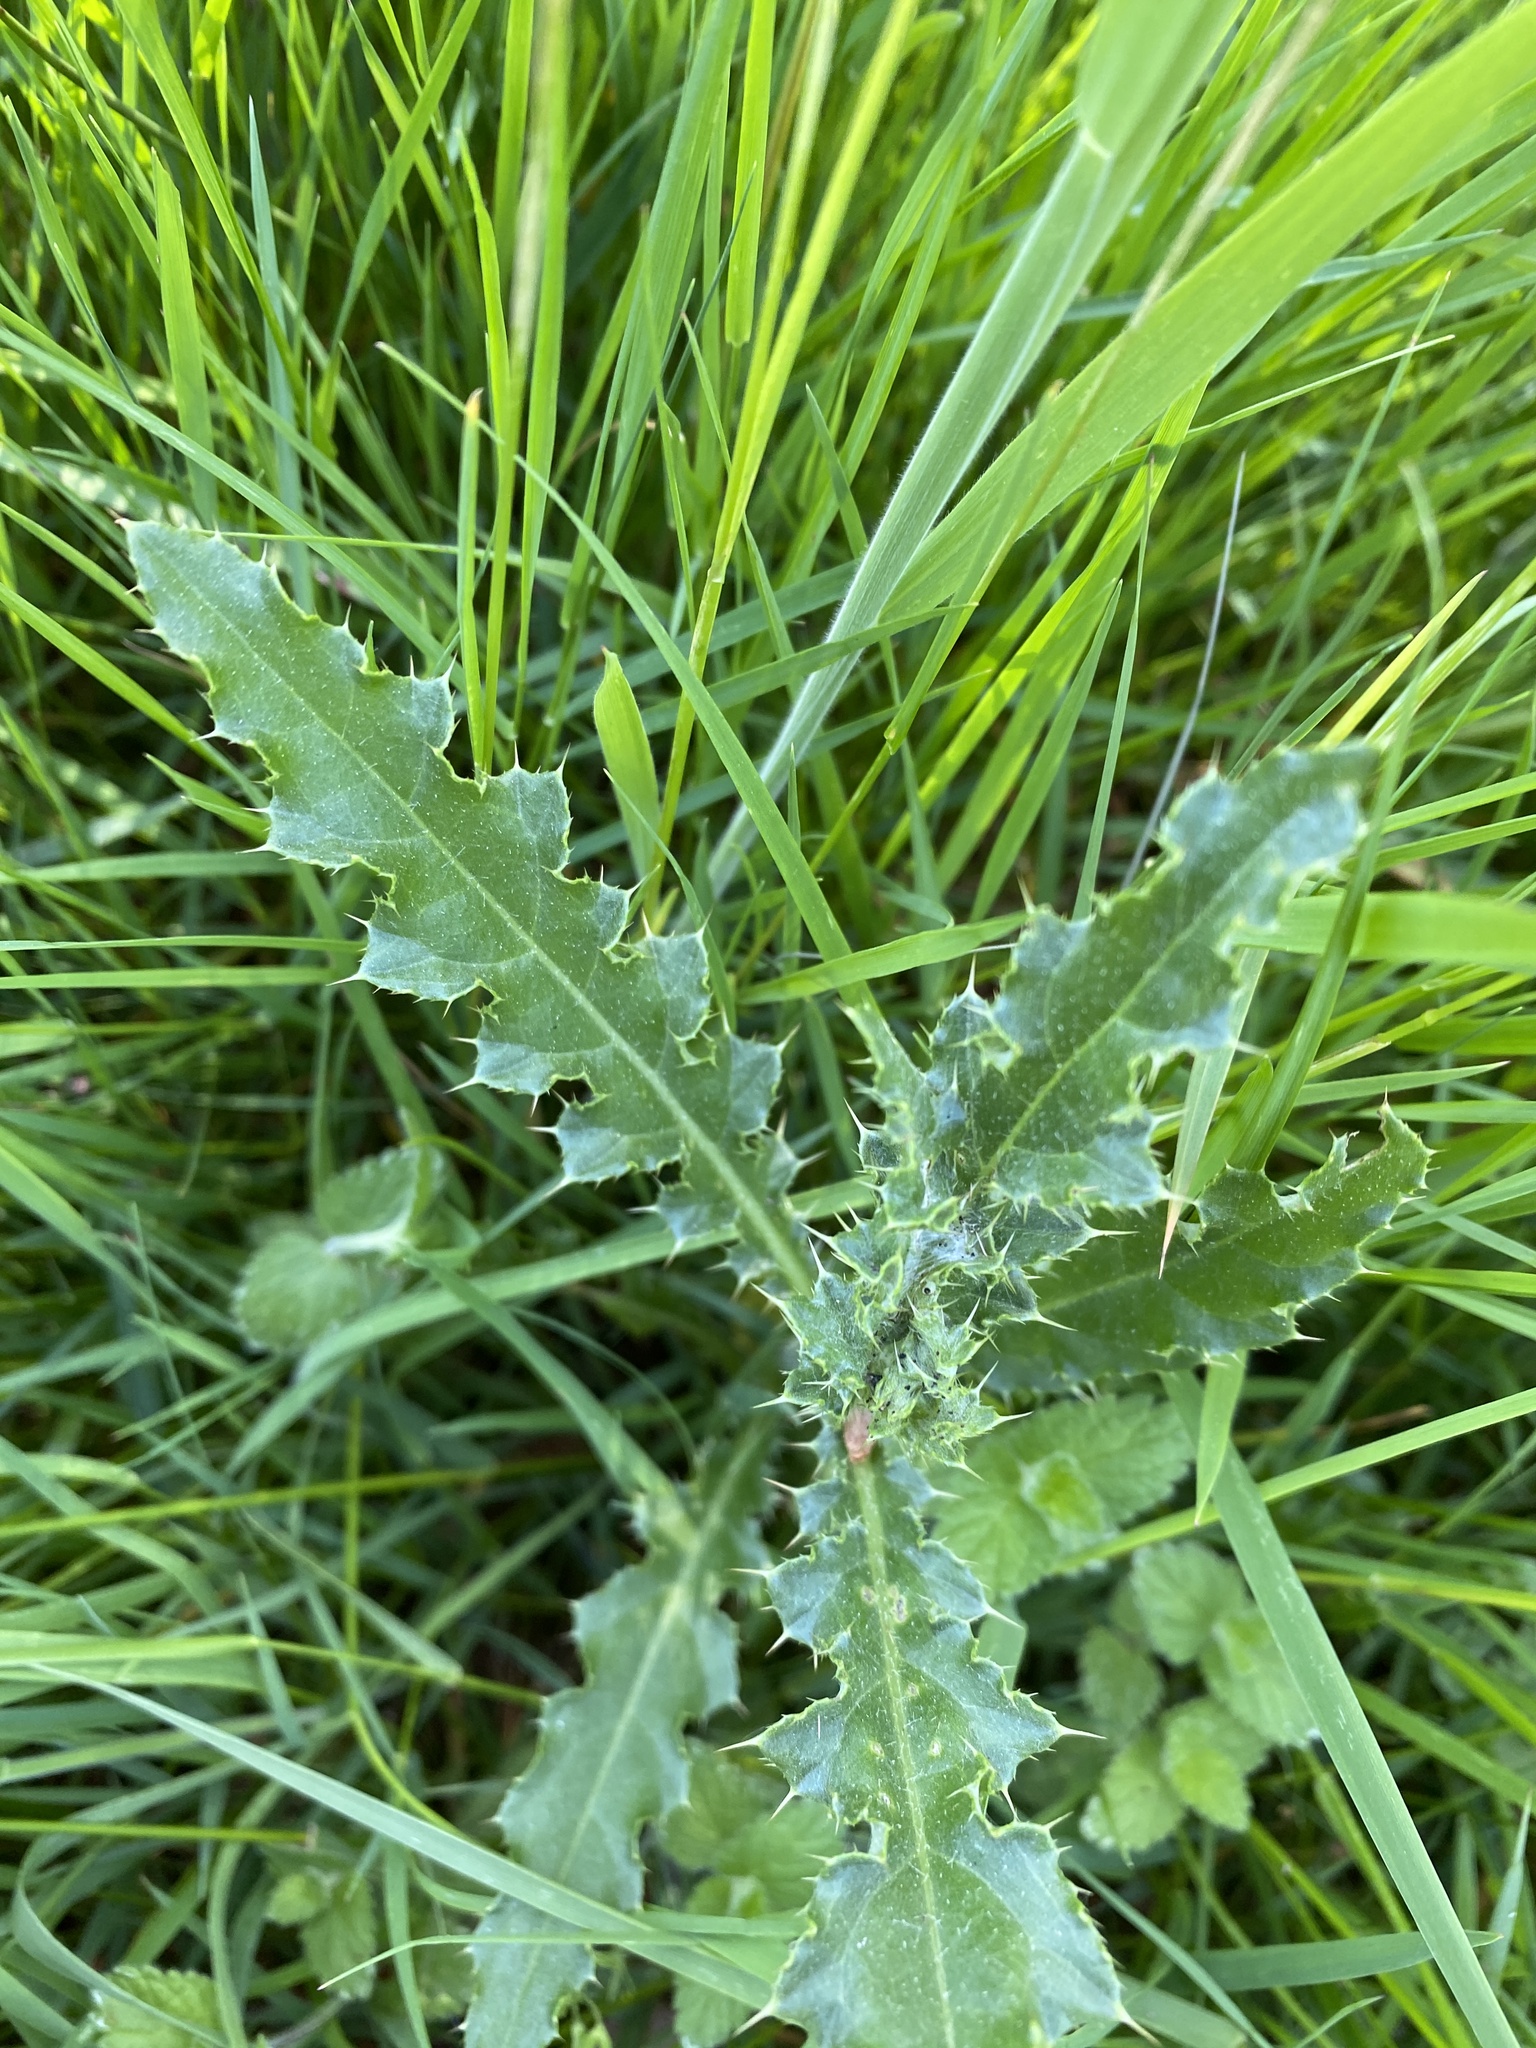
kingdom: Plantae
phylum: Tracheophyta
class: Magnoliopsida
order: Asterales
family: Asteraceae
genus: Cirsium
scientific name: Cirsium arvense
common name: Creeping thistle
